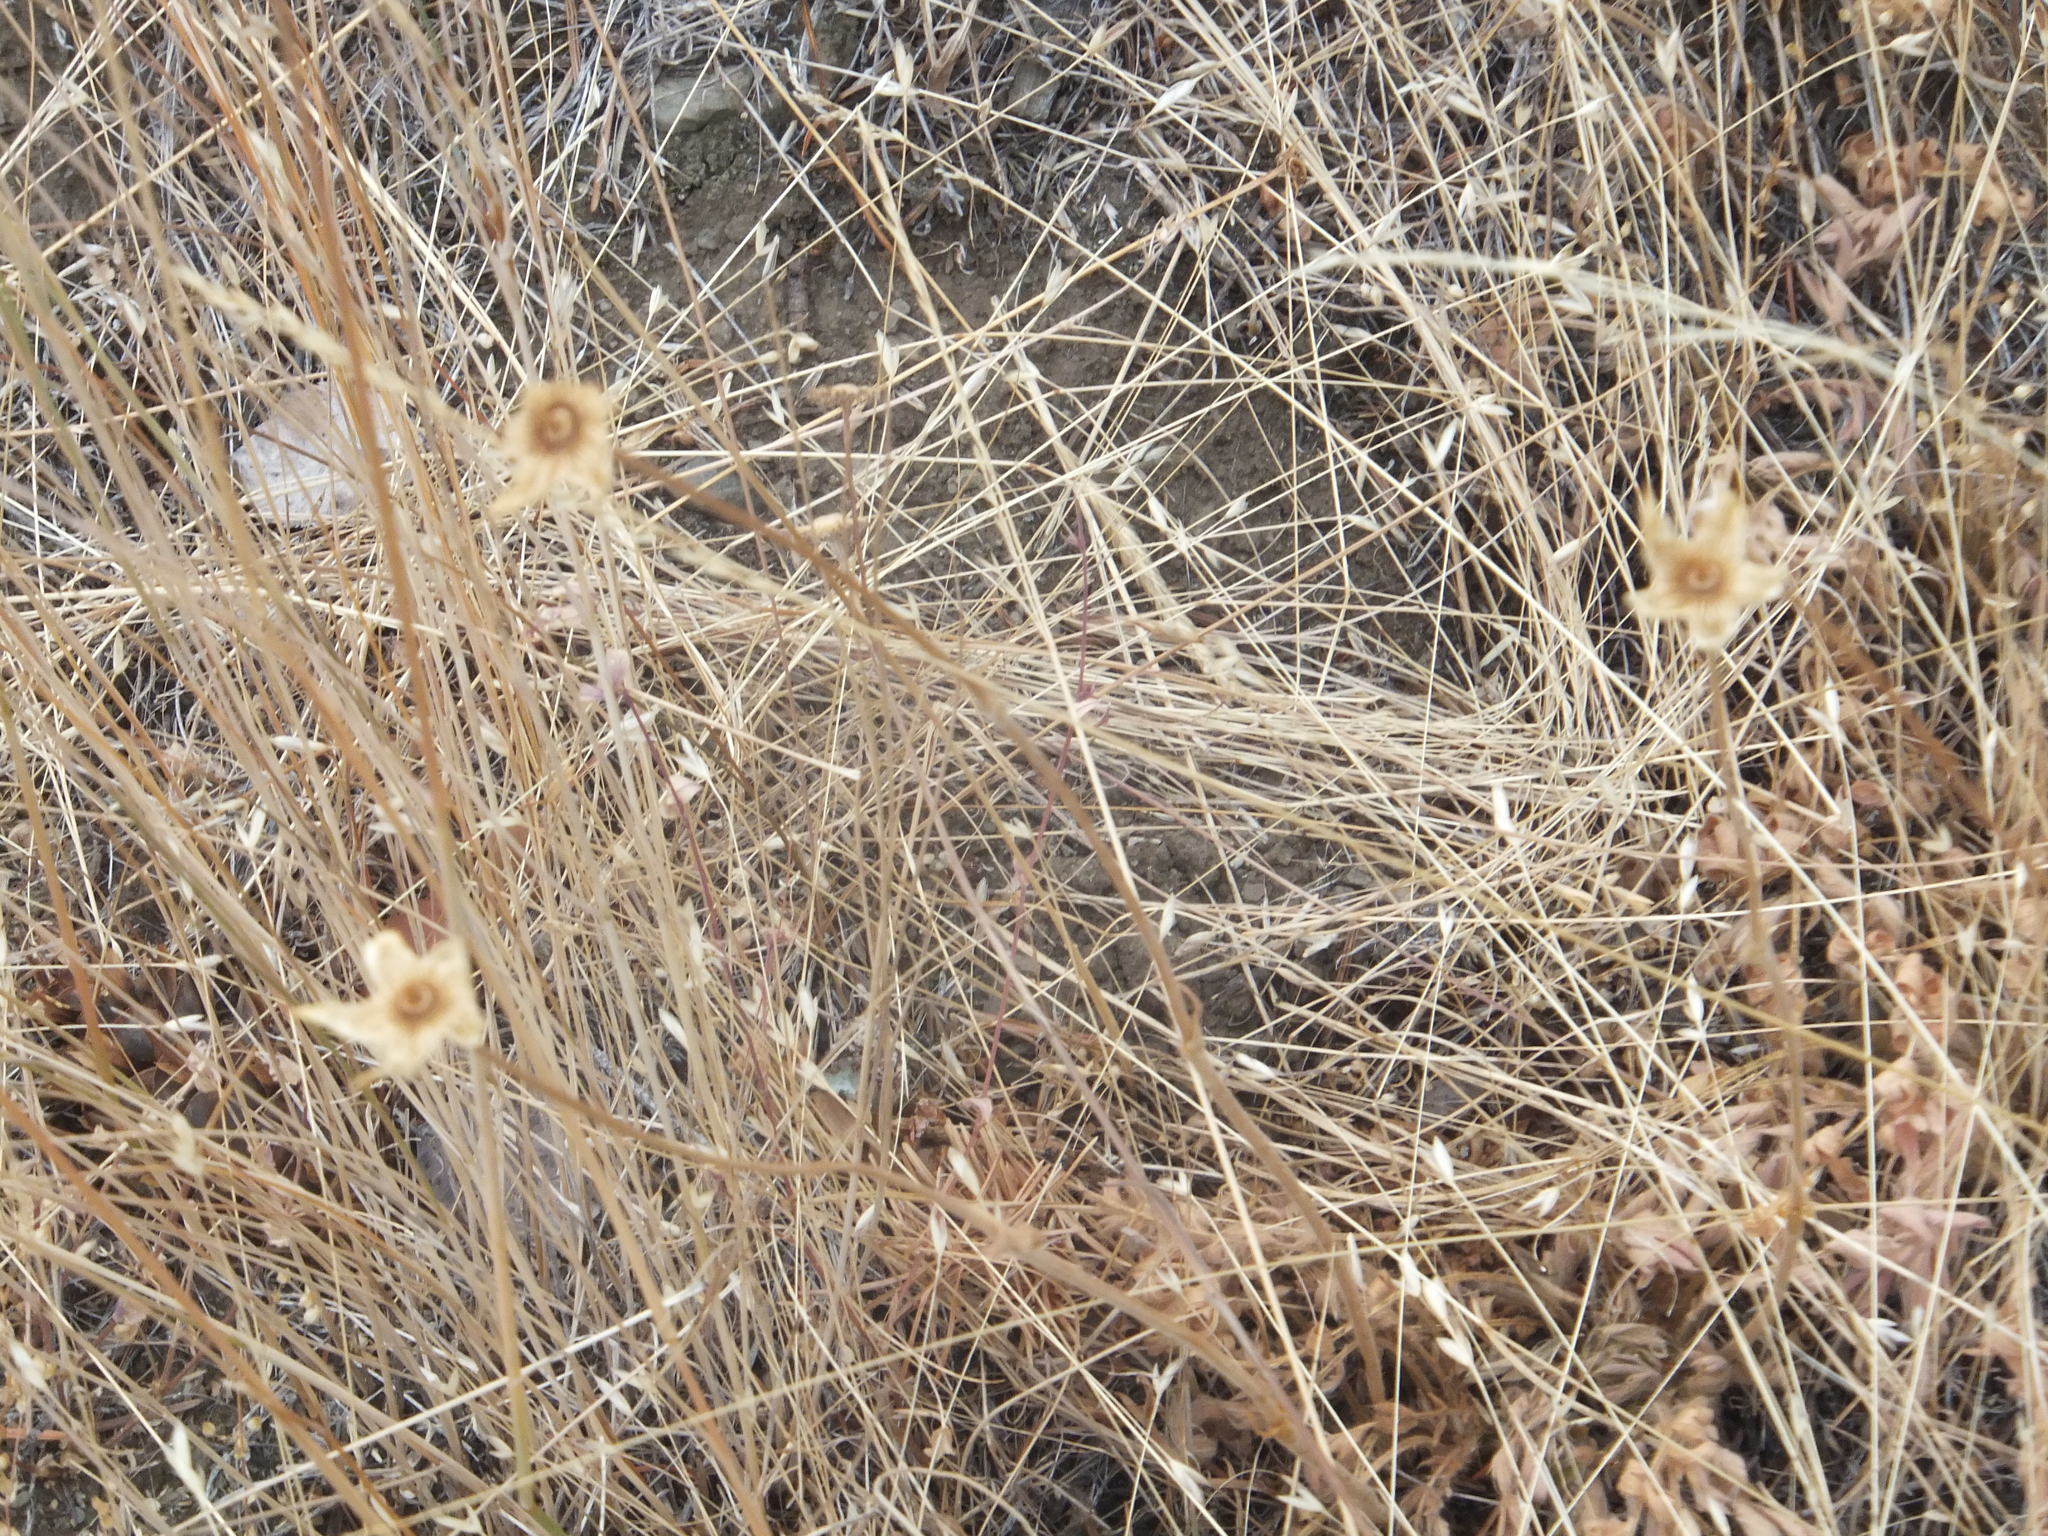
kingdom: Plantae
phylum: Tracheophyta
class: Magnoliopsida
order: Rosales
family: Rosaceae
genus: Geum
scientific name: Geum triflorum
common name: Old man's whiskers
